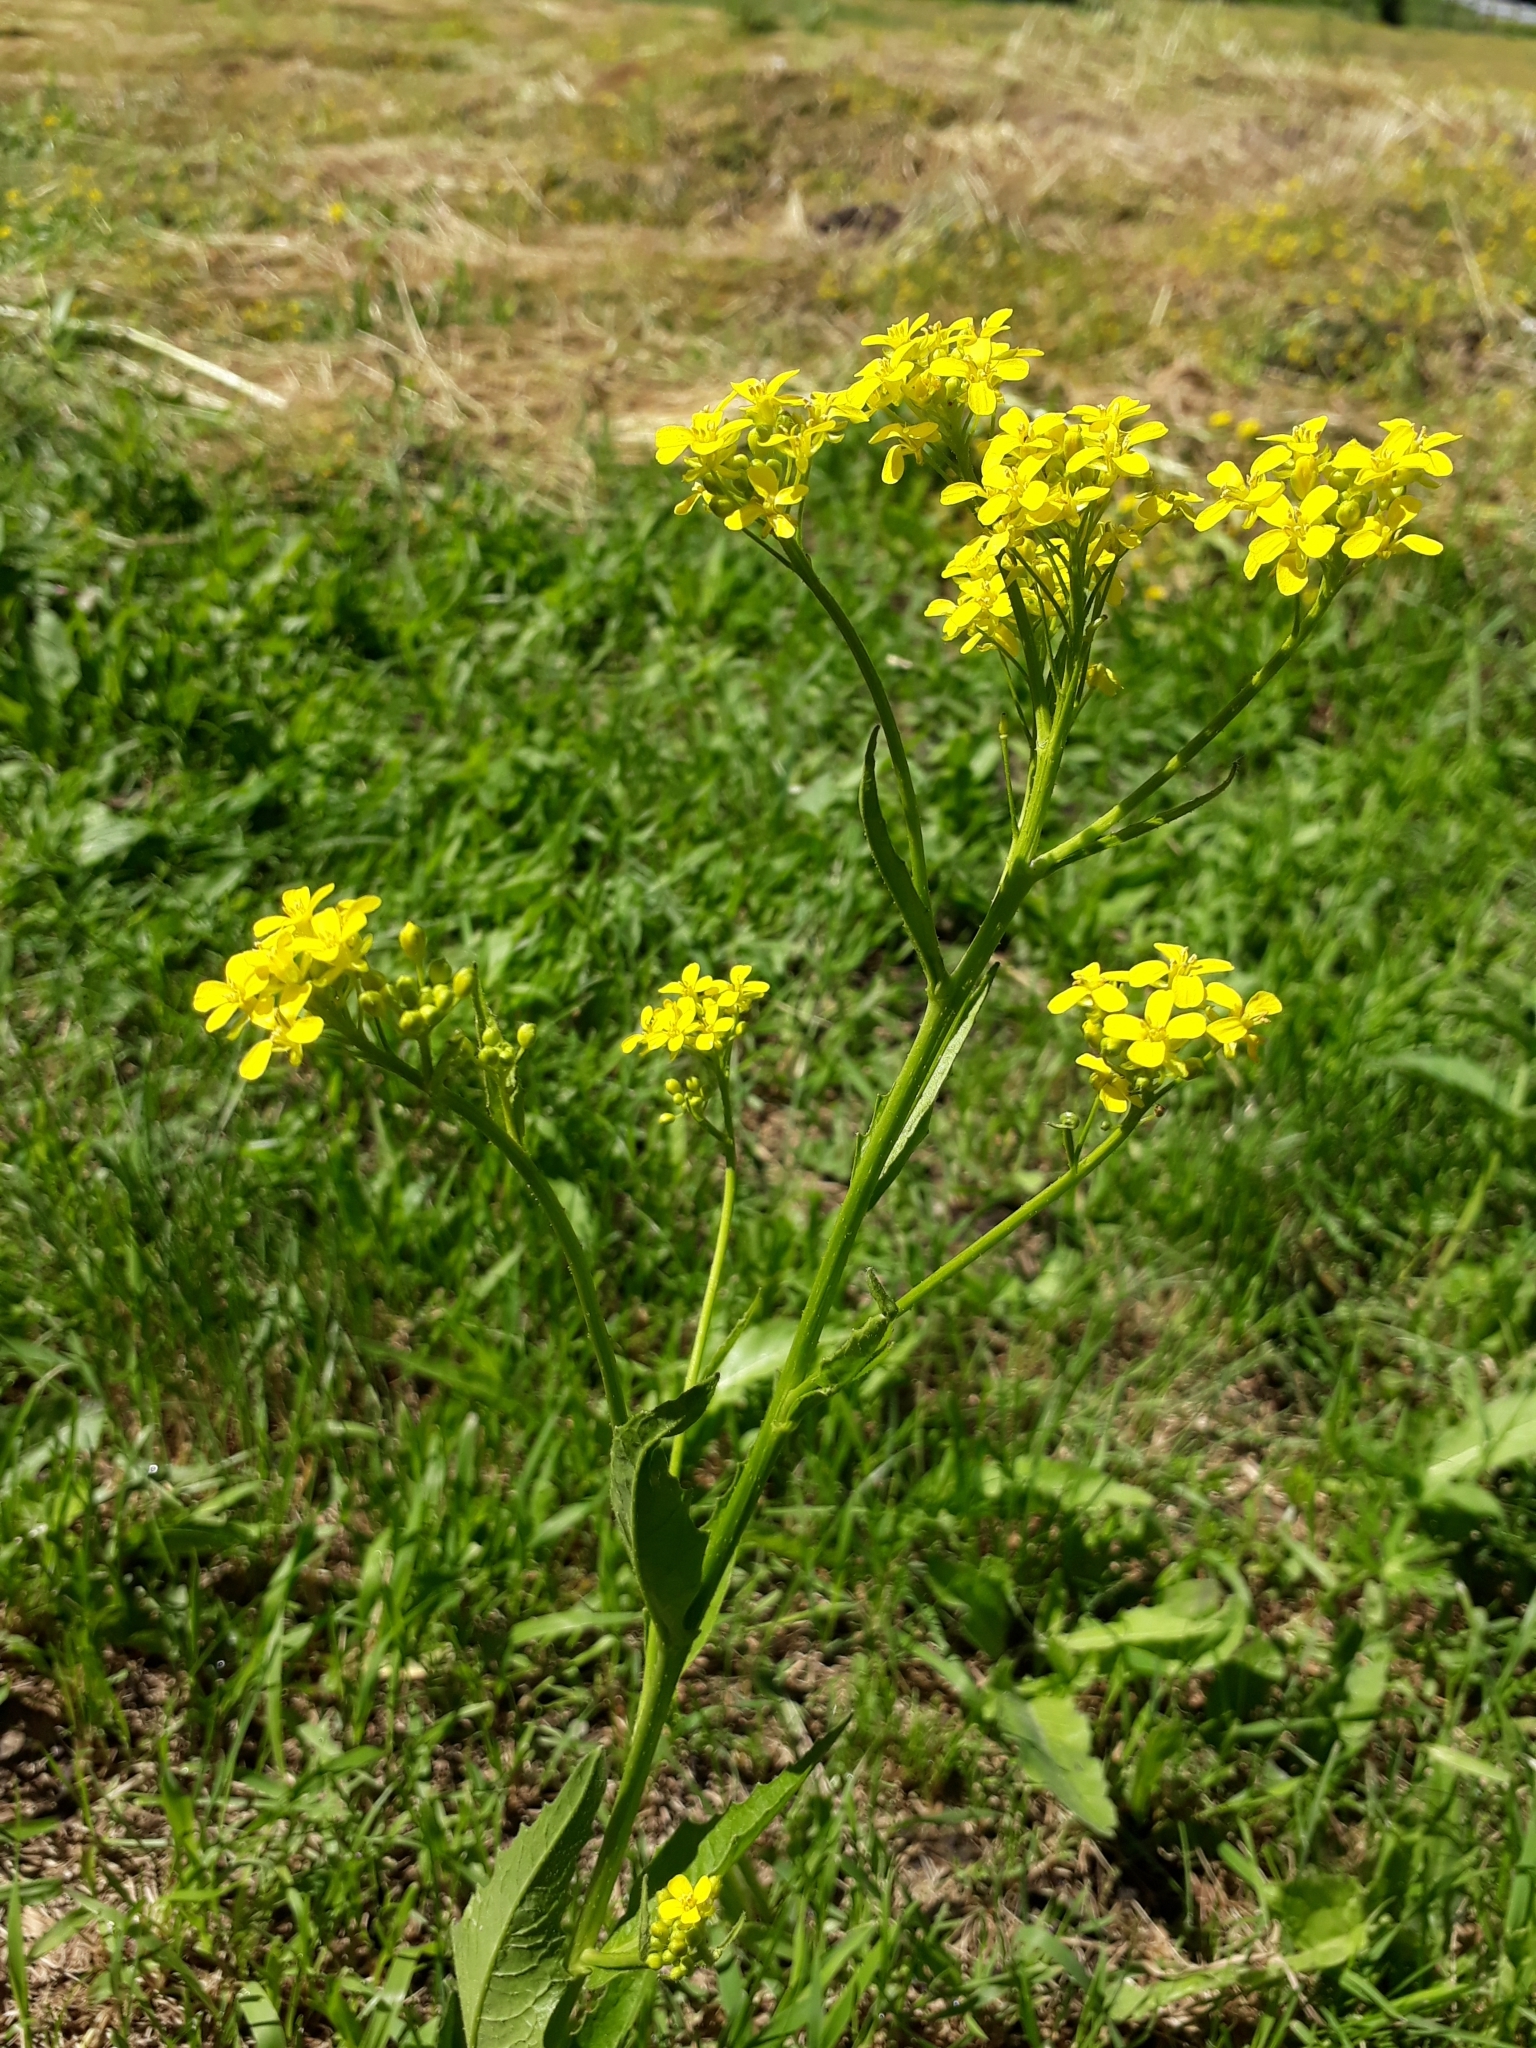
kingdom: Plantae
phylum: Tracheophyta
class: Magnoliopsida
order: Brassicales
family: Brassicaceae
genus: Bunias
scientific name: Bunias orientalis
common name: Warty-cabbage
